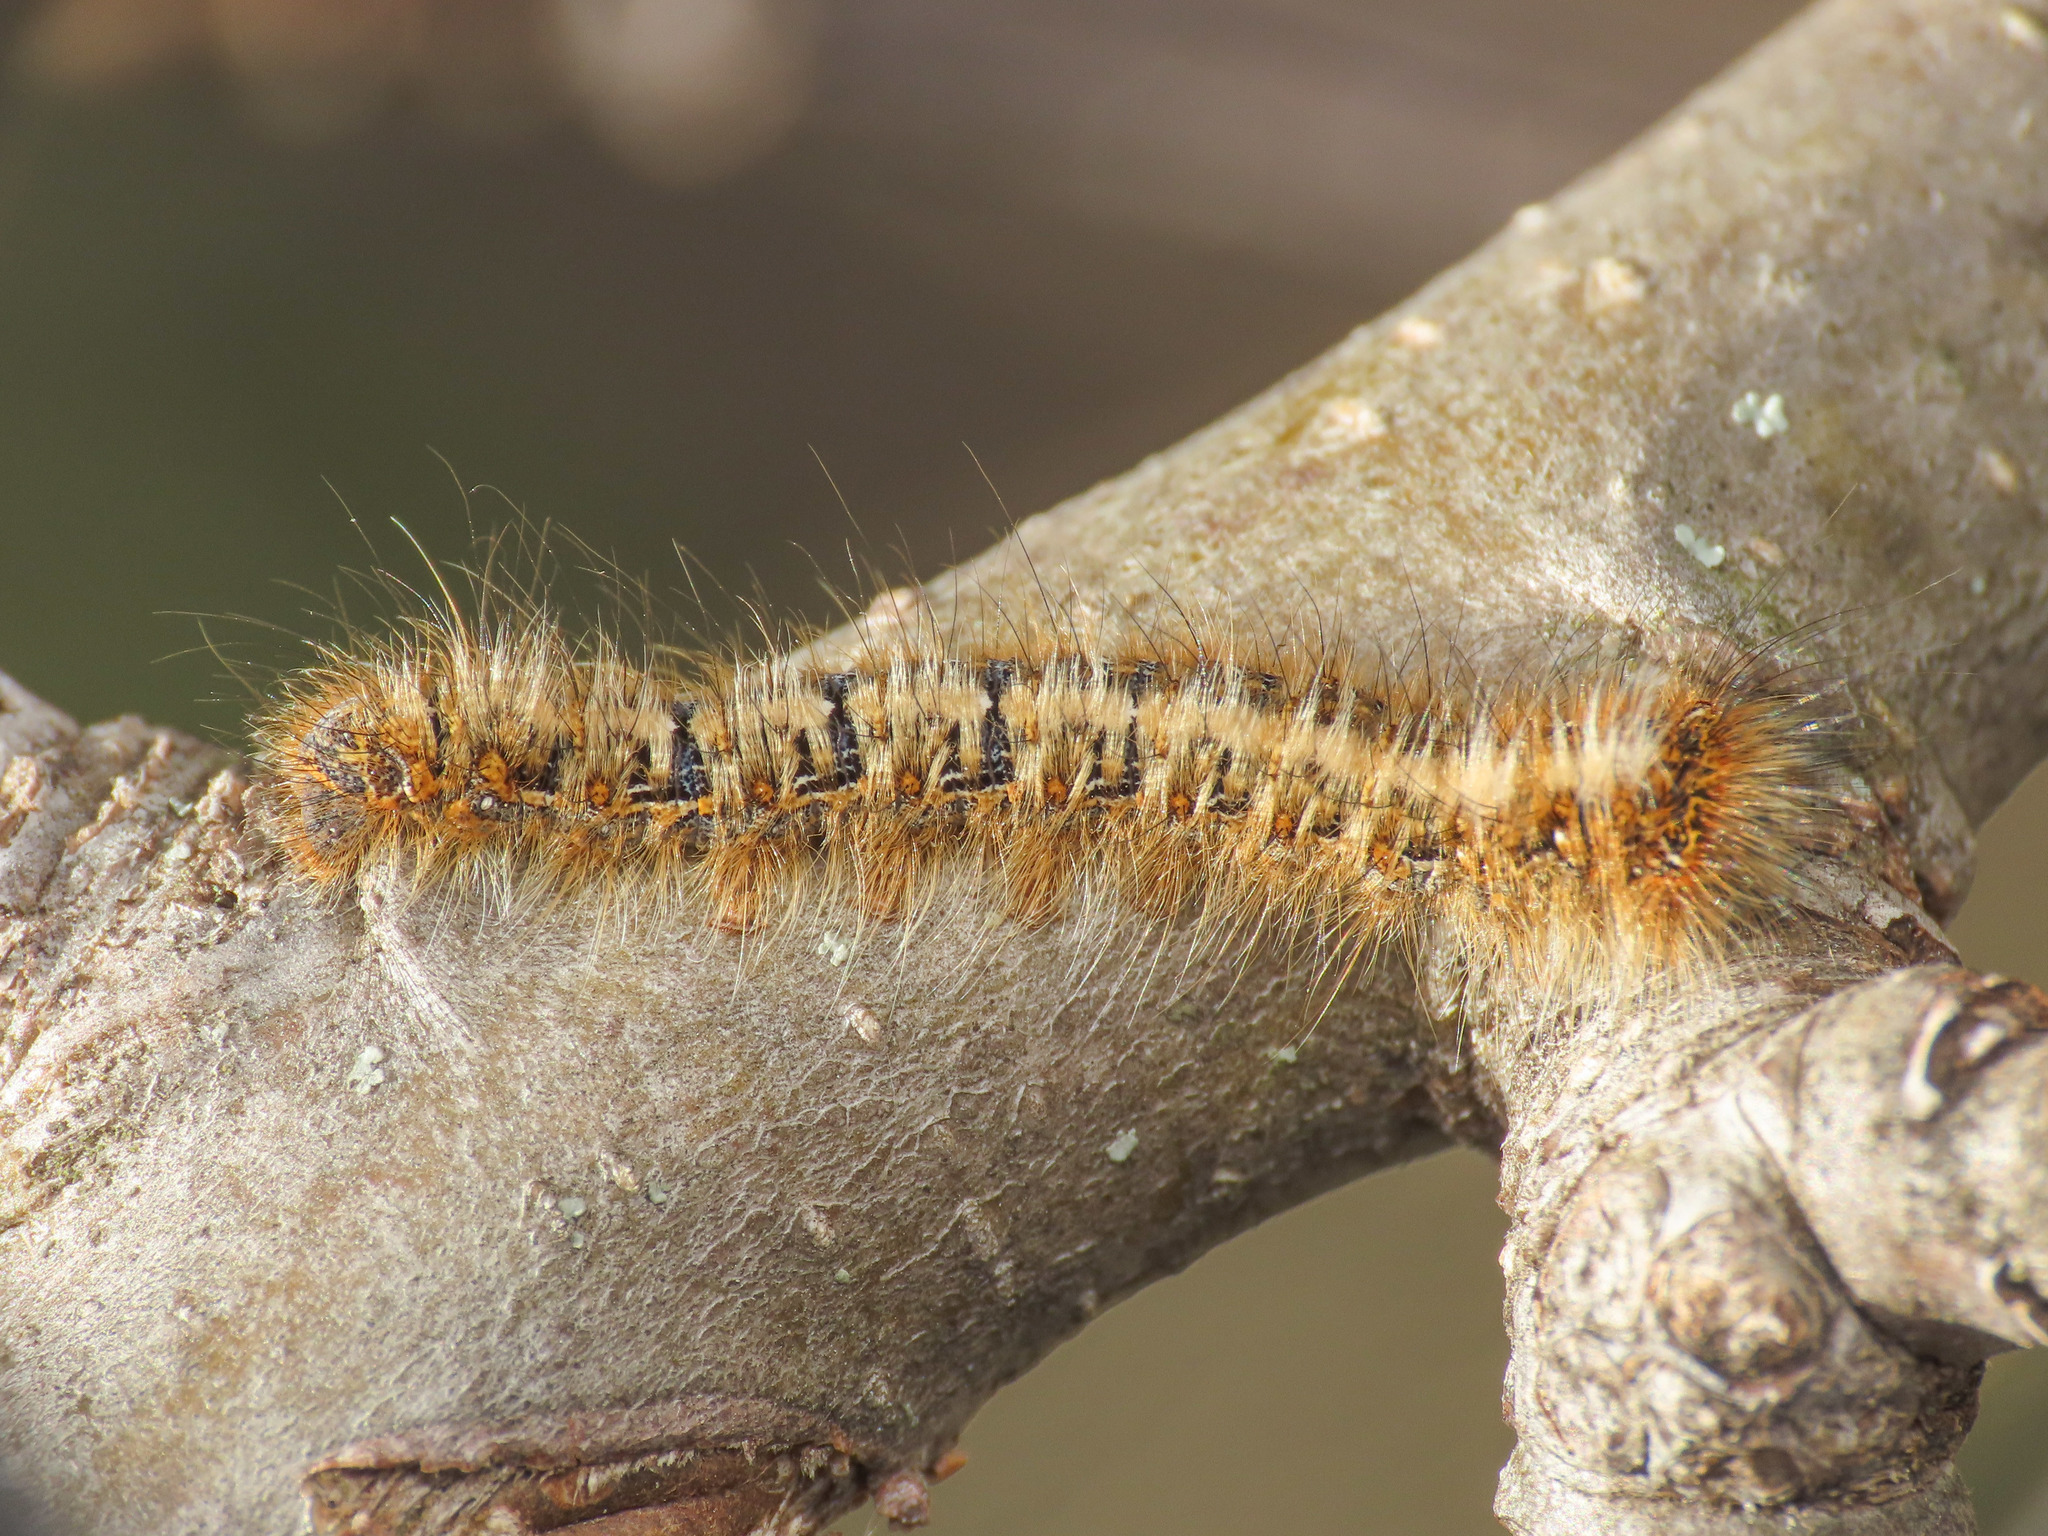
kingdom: Animalia
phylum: Arthropoda
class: Insecta
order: Lepidoptera
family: Lasiocampidae
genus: Lasiocampa
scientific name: Lasiocampa quercus
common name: Oak eggar
